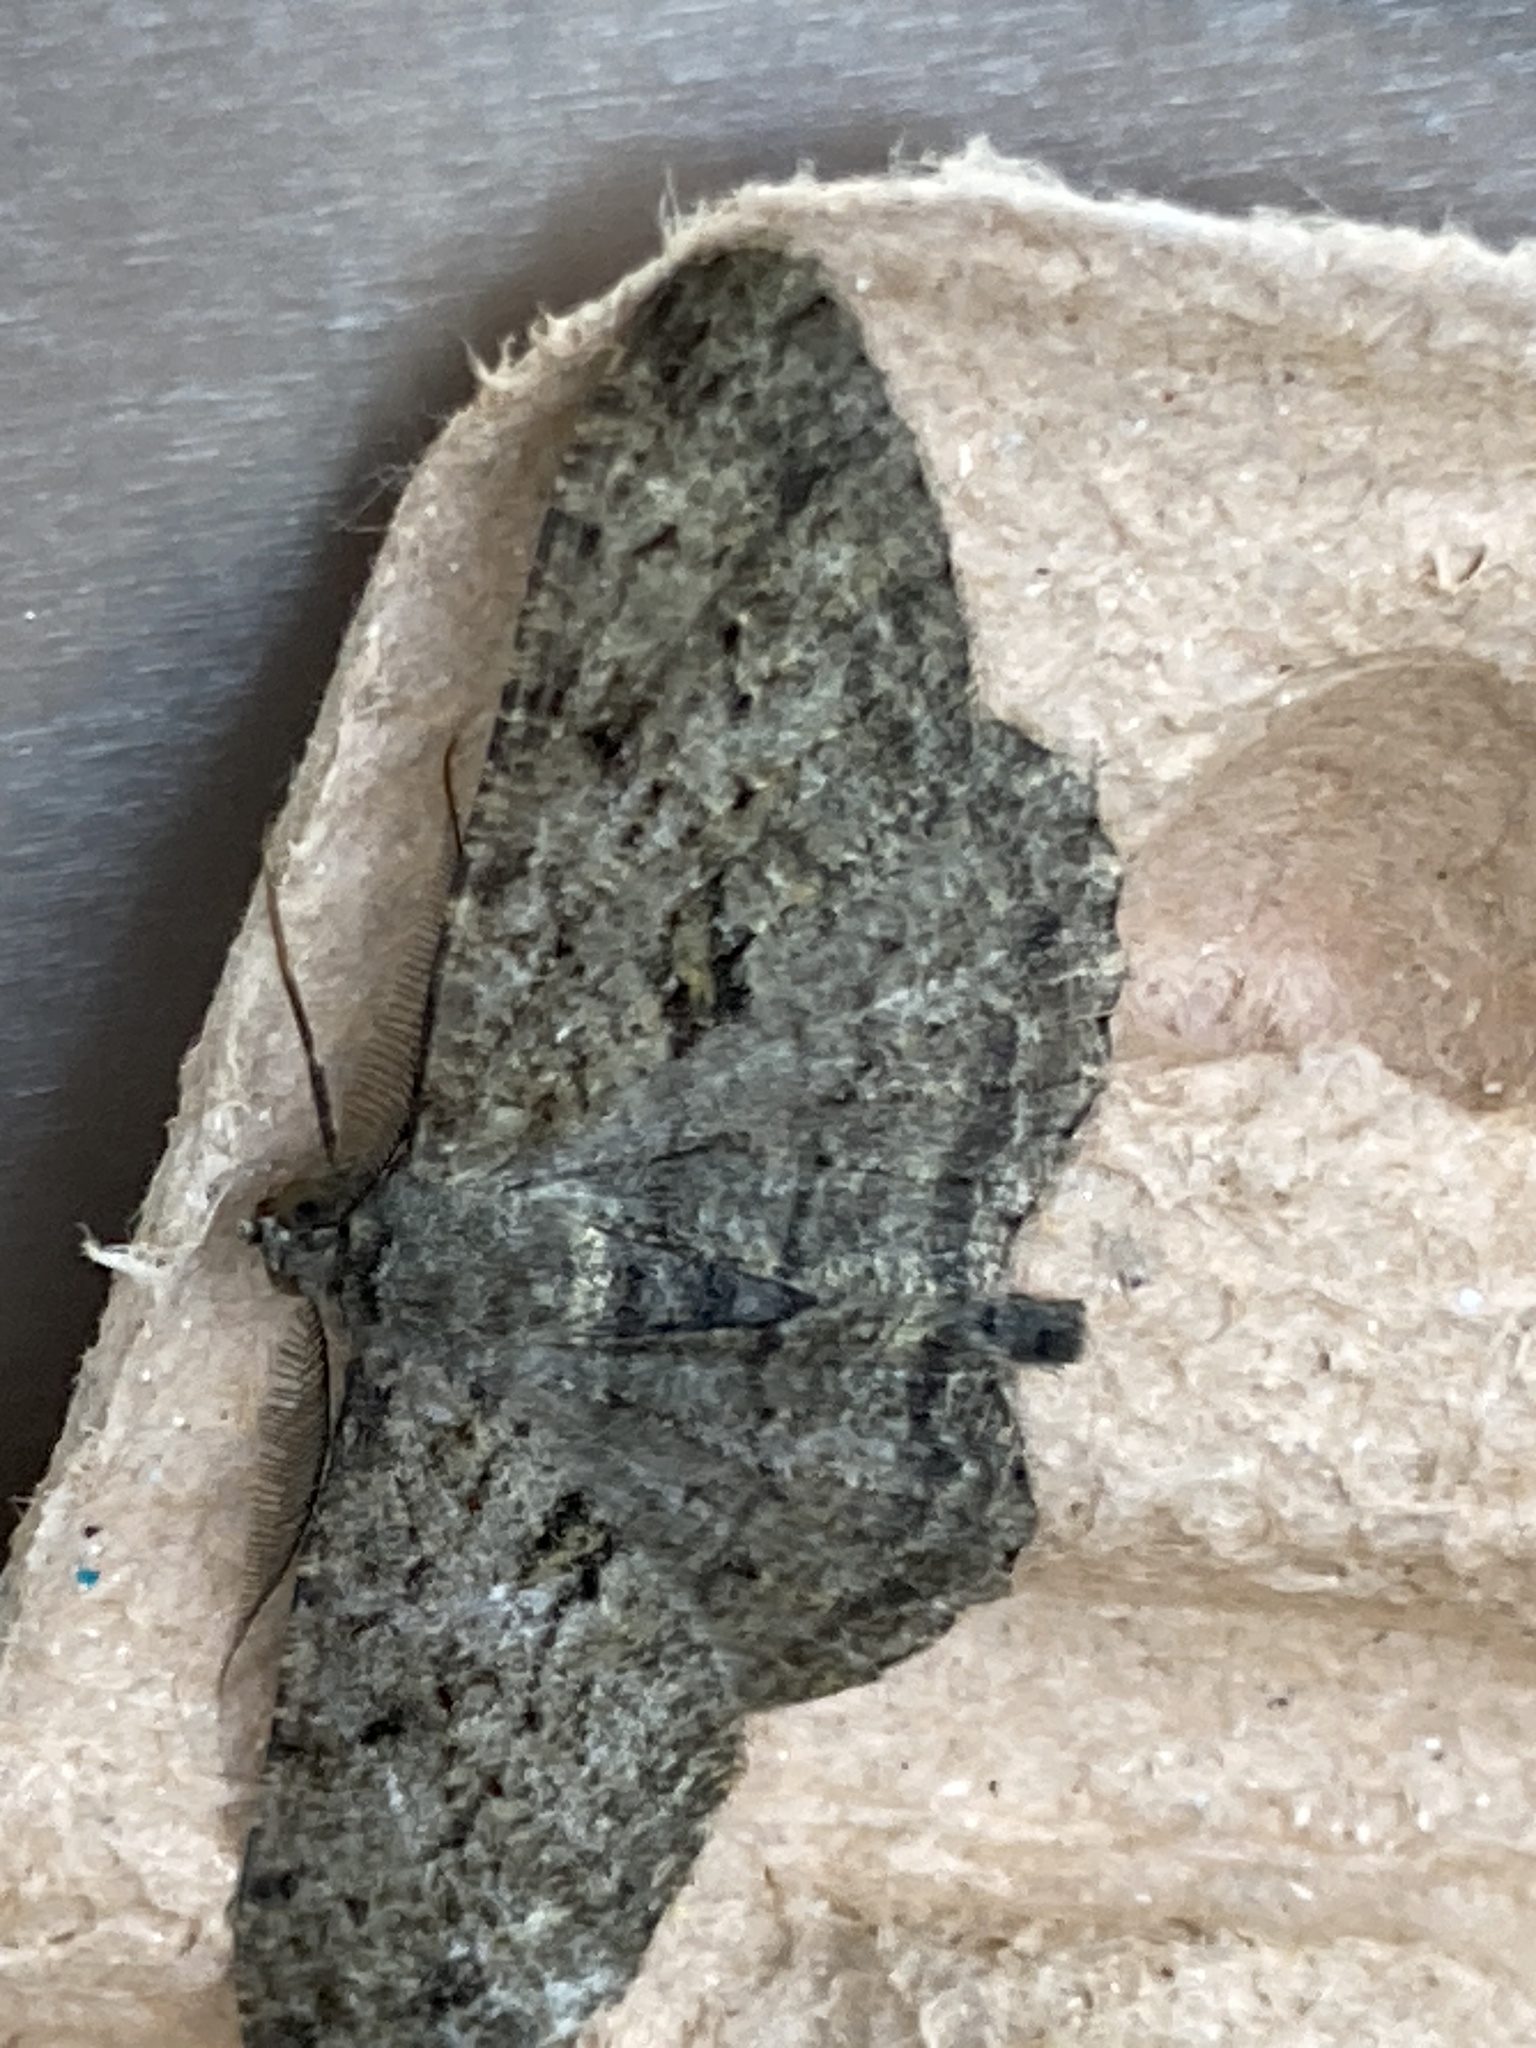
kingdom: Animalia
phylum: Arthropoda
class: Insecta
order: Lepidoptera
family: Geometridae
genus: Peribatodes
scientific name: Peribatodes rhomboidaria
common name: Willow beauty
